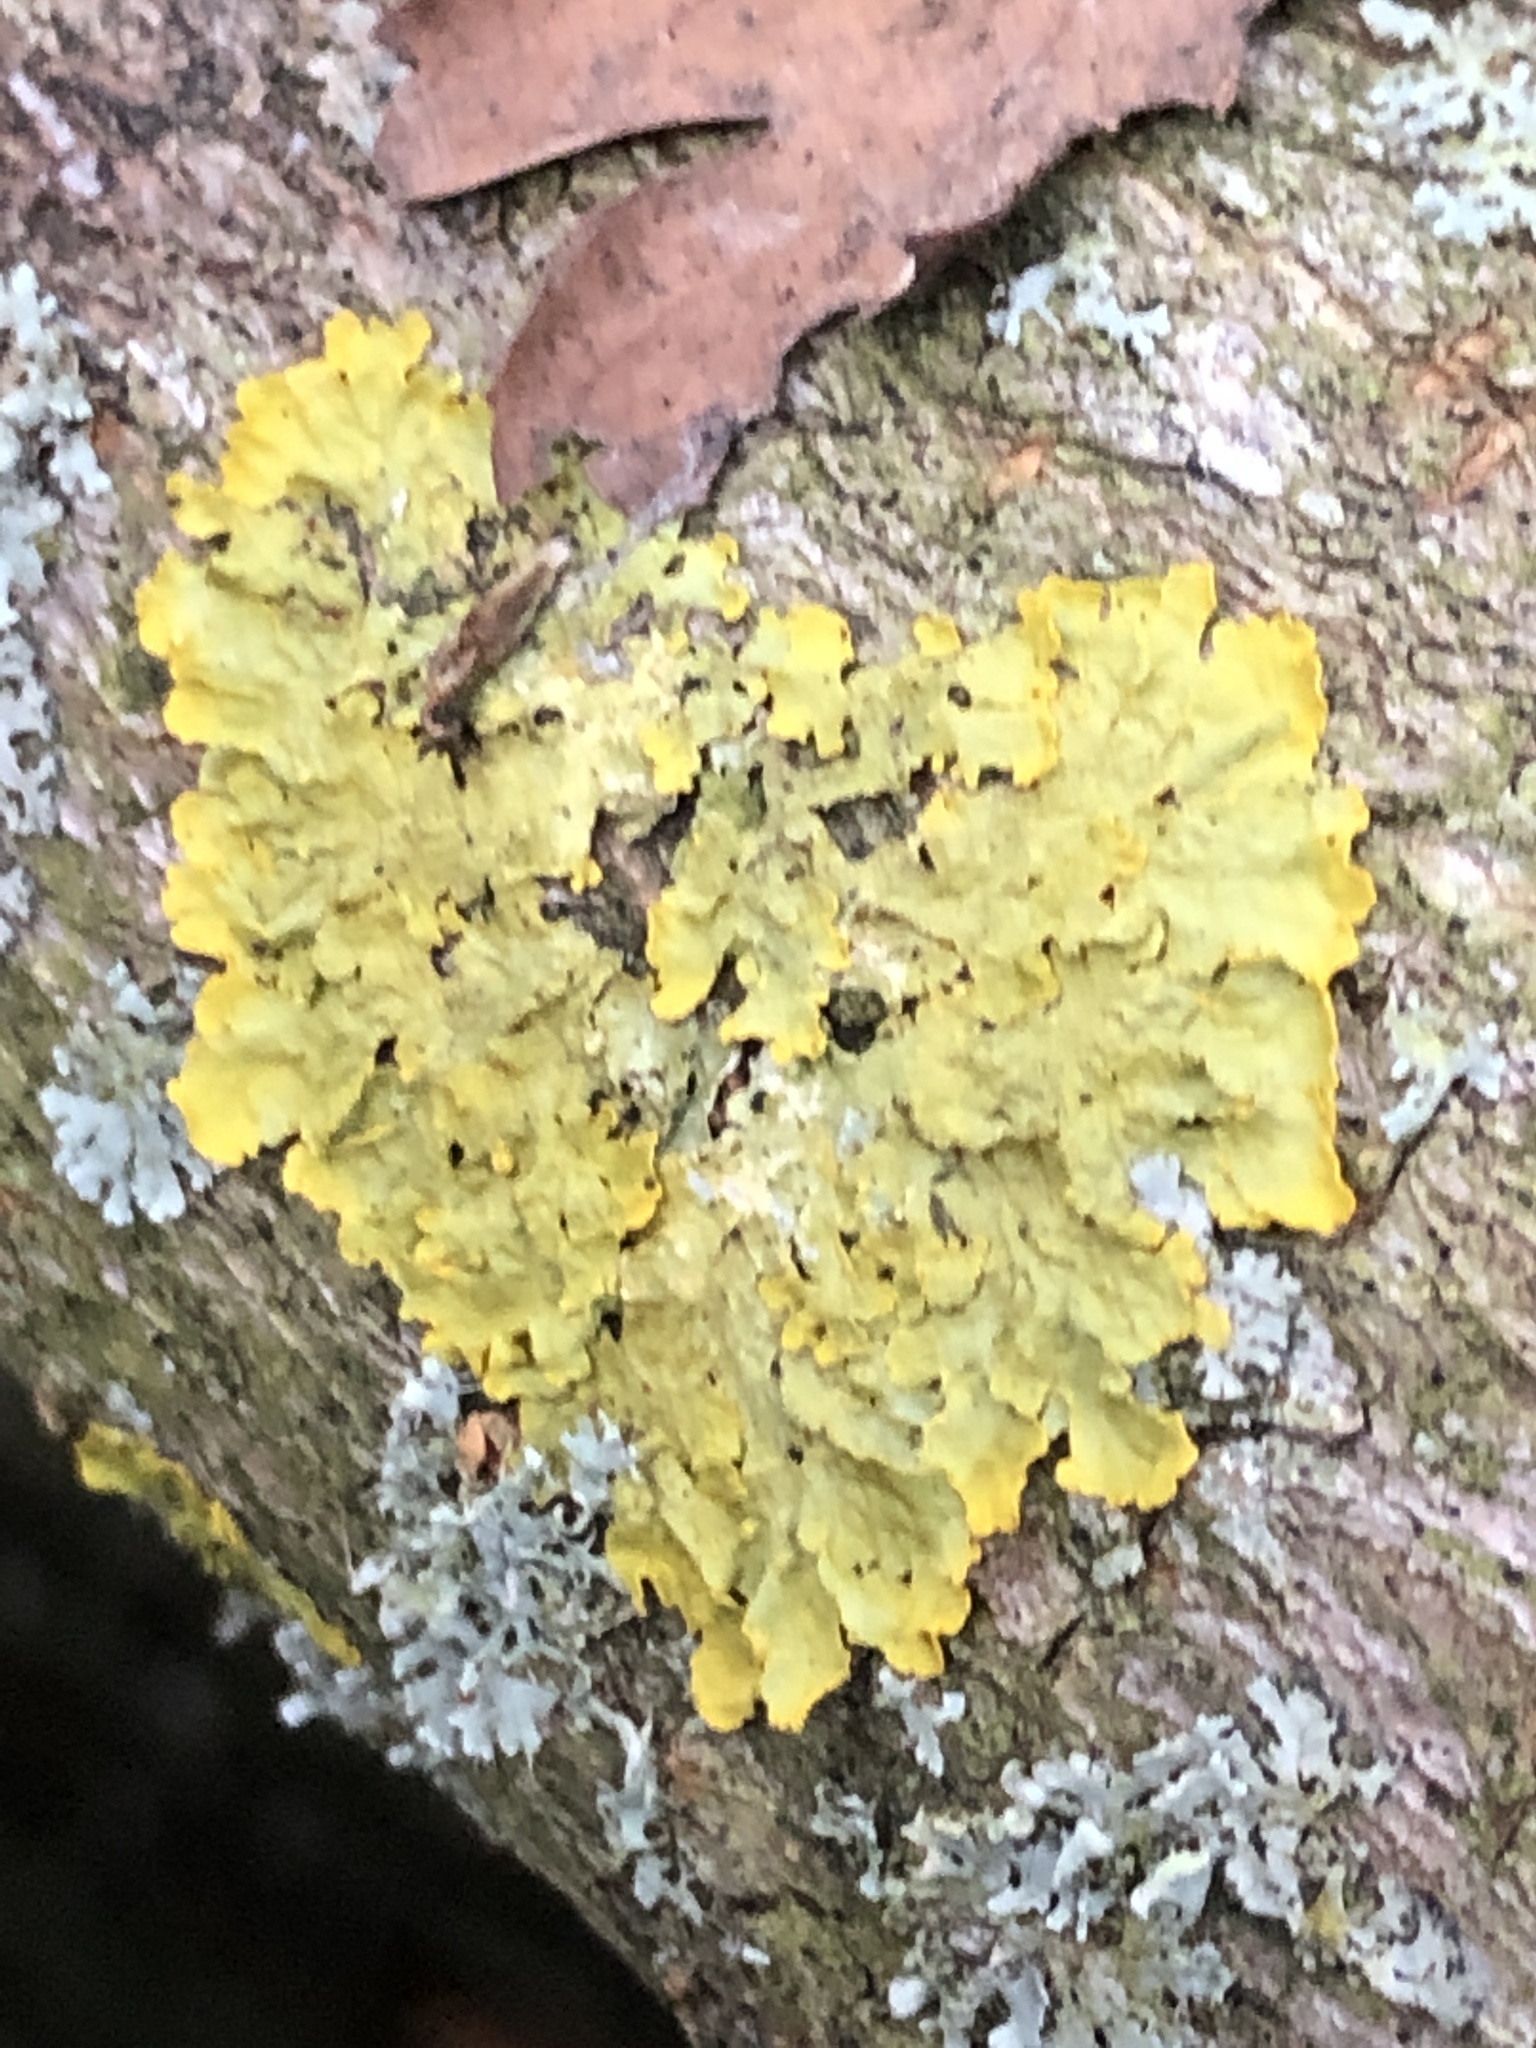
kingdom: Fungi
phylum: Ascomycota
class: Lecanoromycetes
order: Teloschistales
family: Teloschistaceae
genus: Xanthoria
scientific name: Xanthoria parietina
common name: Common orange lichen
